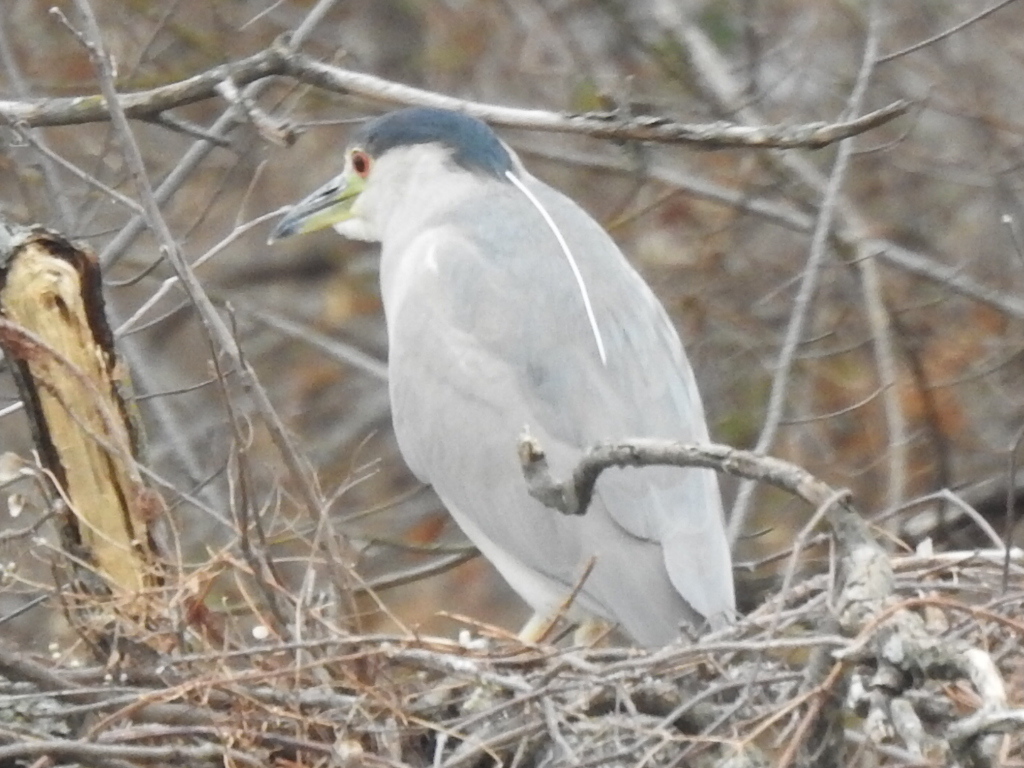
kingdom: Animalia
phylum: Chordata
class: Aves
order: Pelecaniformes
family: Ardeidae
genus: Nycticorax
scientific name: Nycticorax nycticorax
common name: Black-crowned night heron
